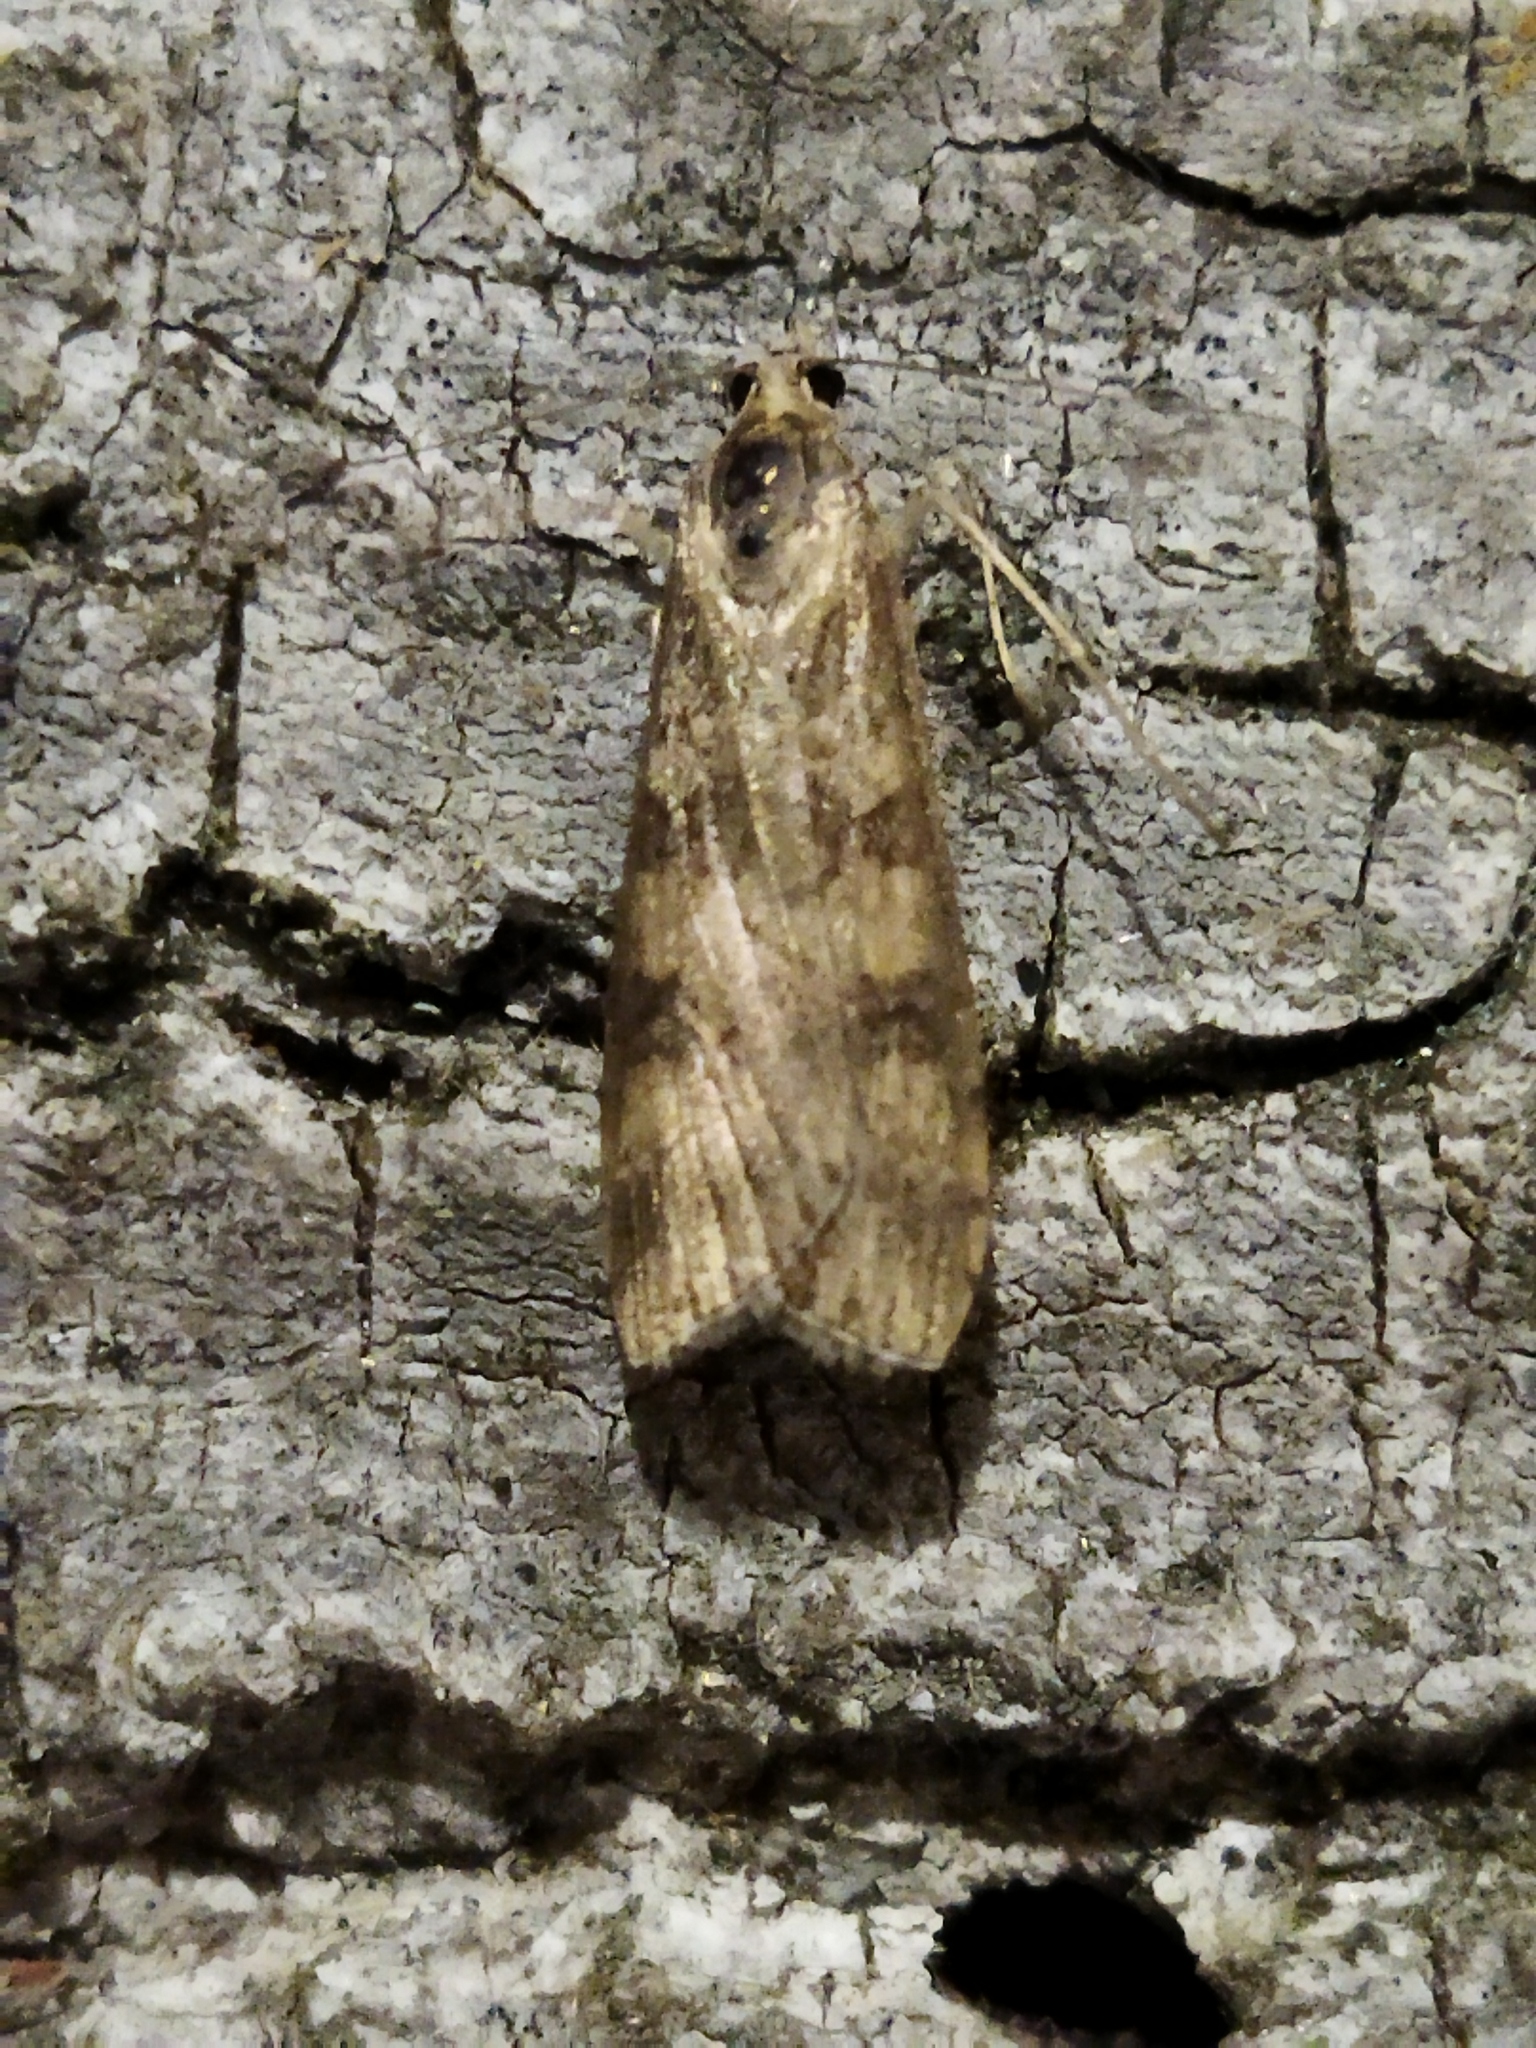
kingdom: Animalia
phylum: Arthropoda
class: Insecta
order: Lepidoptera
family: Crambidae
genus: Nomophila
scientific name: Nomophila noctuella
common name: Rush veneer
